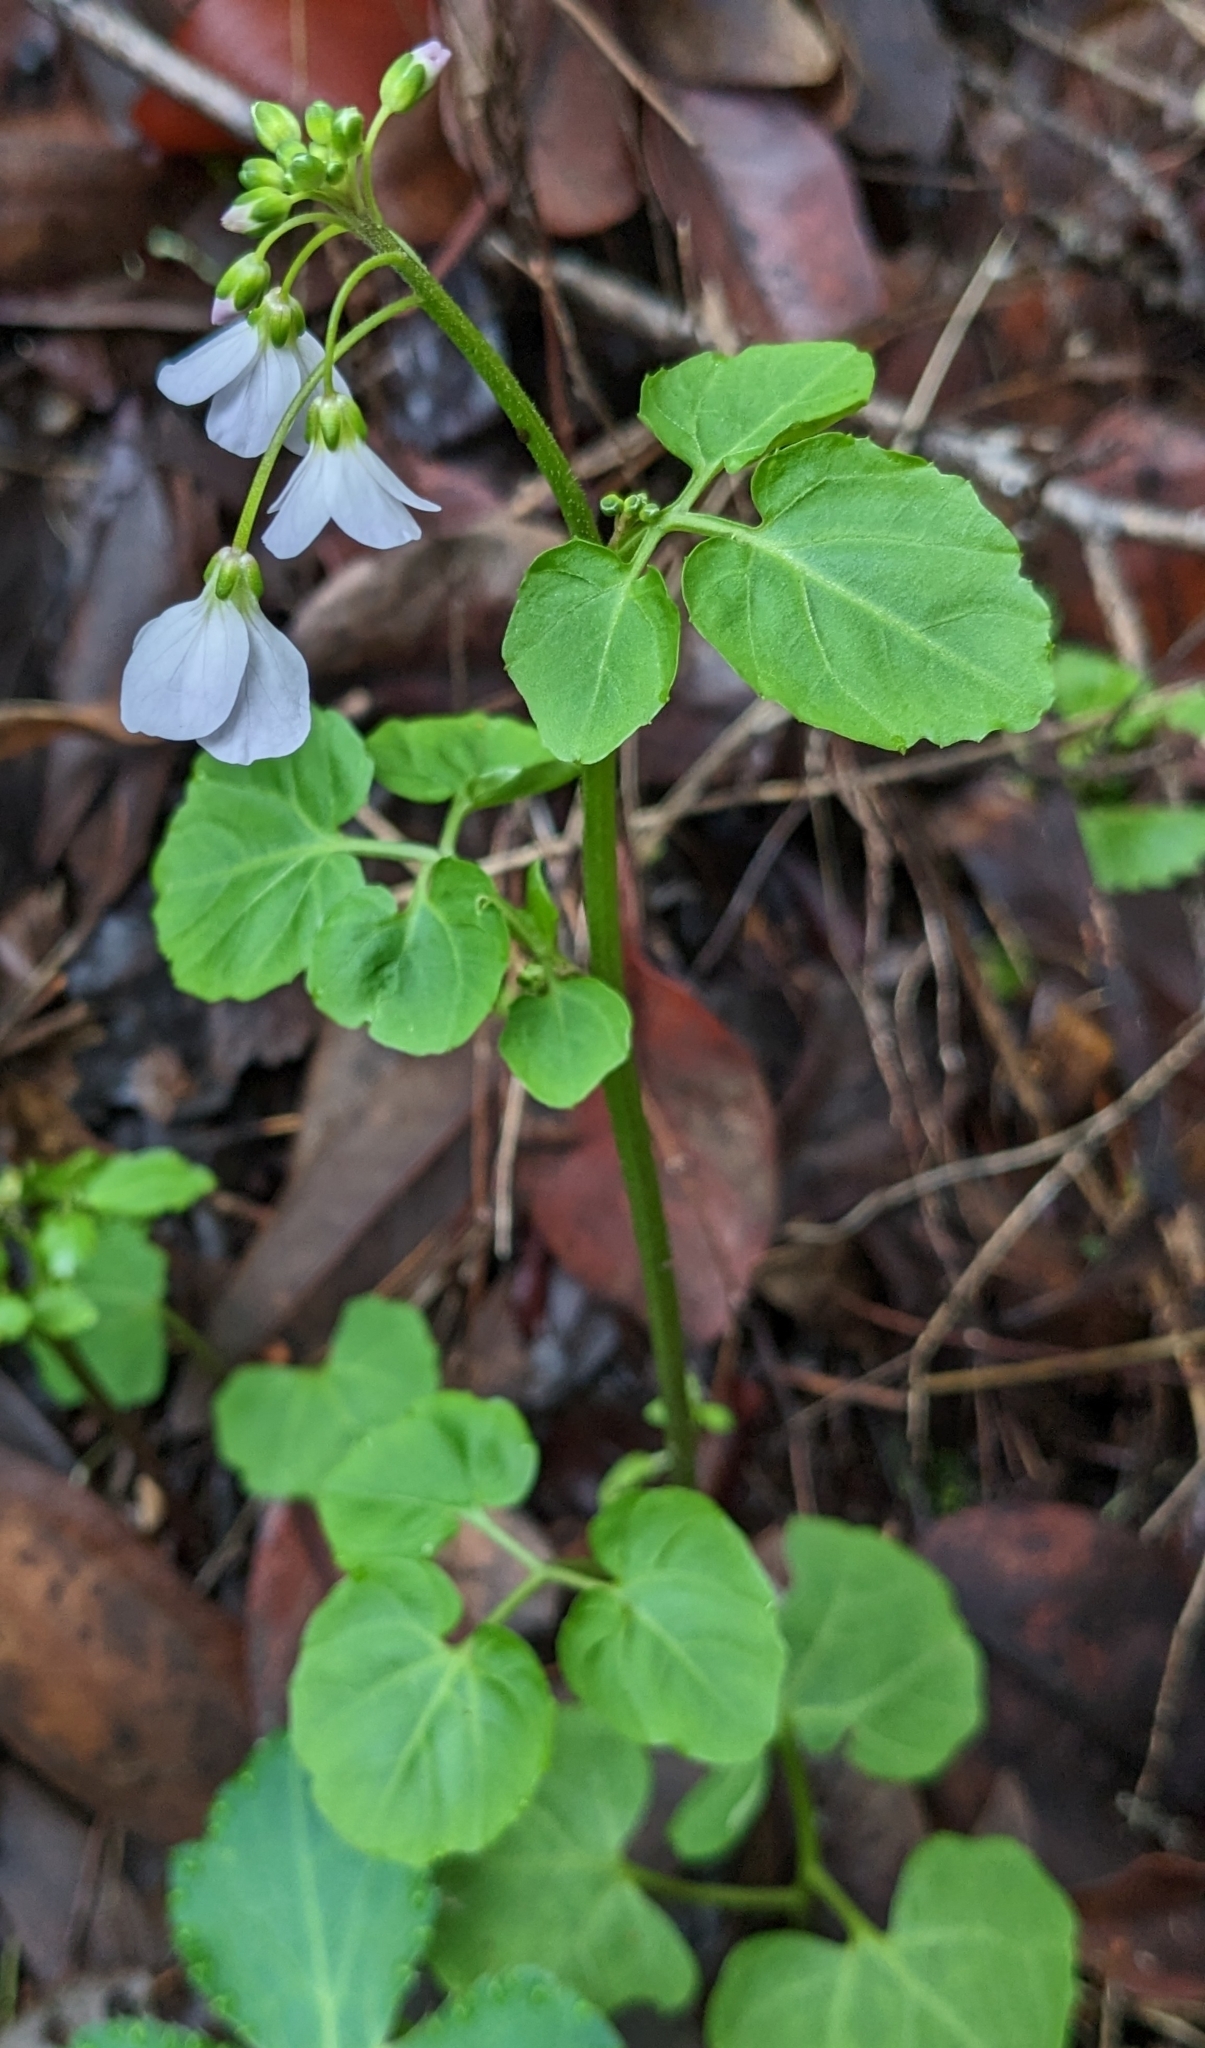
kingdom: Plantae
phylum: Tracheophyta
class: Magnoliopsida
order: Brassicales
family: Brassicaceae
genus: Cardamine
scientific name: Cardamine californica
